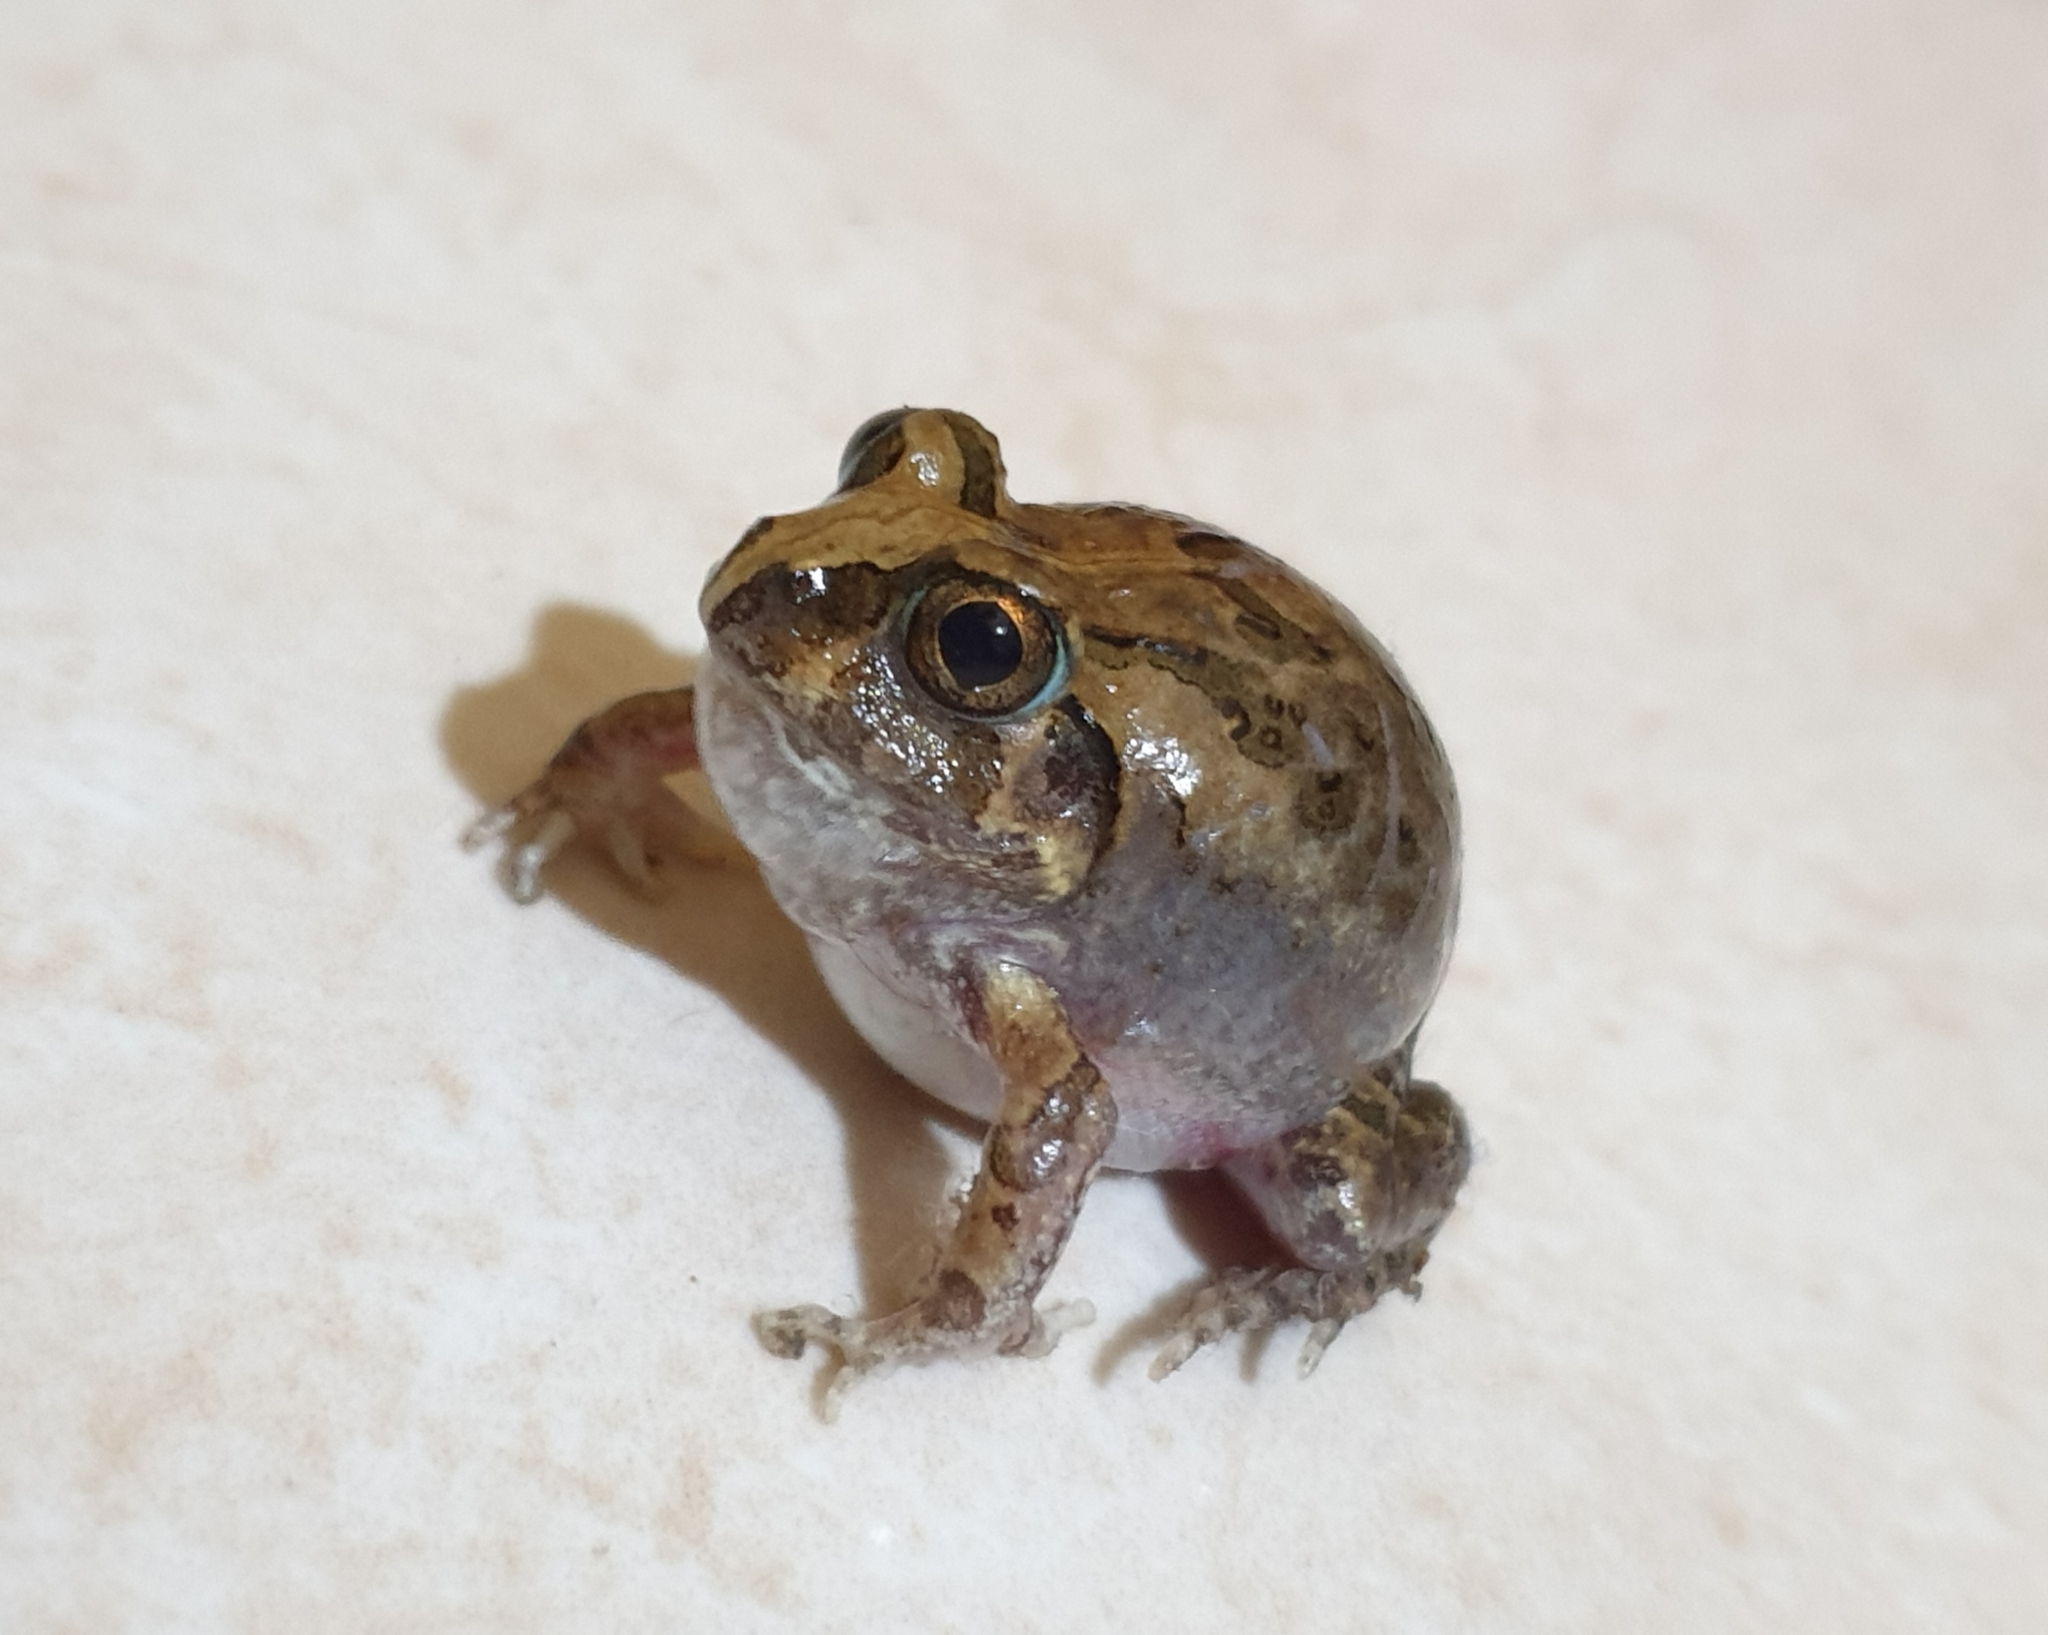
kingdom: Animalia
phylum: Chordata
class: Amphibia
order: Anura
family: Dicroglossidae
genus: Sphaerotheca
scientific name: Sphaerotheca breviceps
